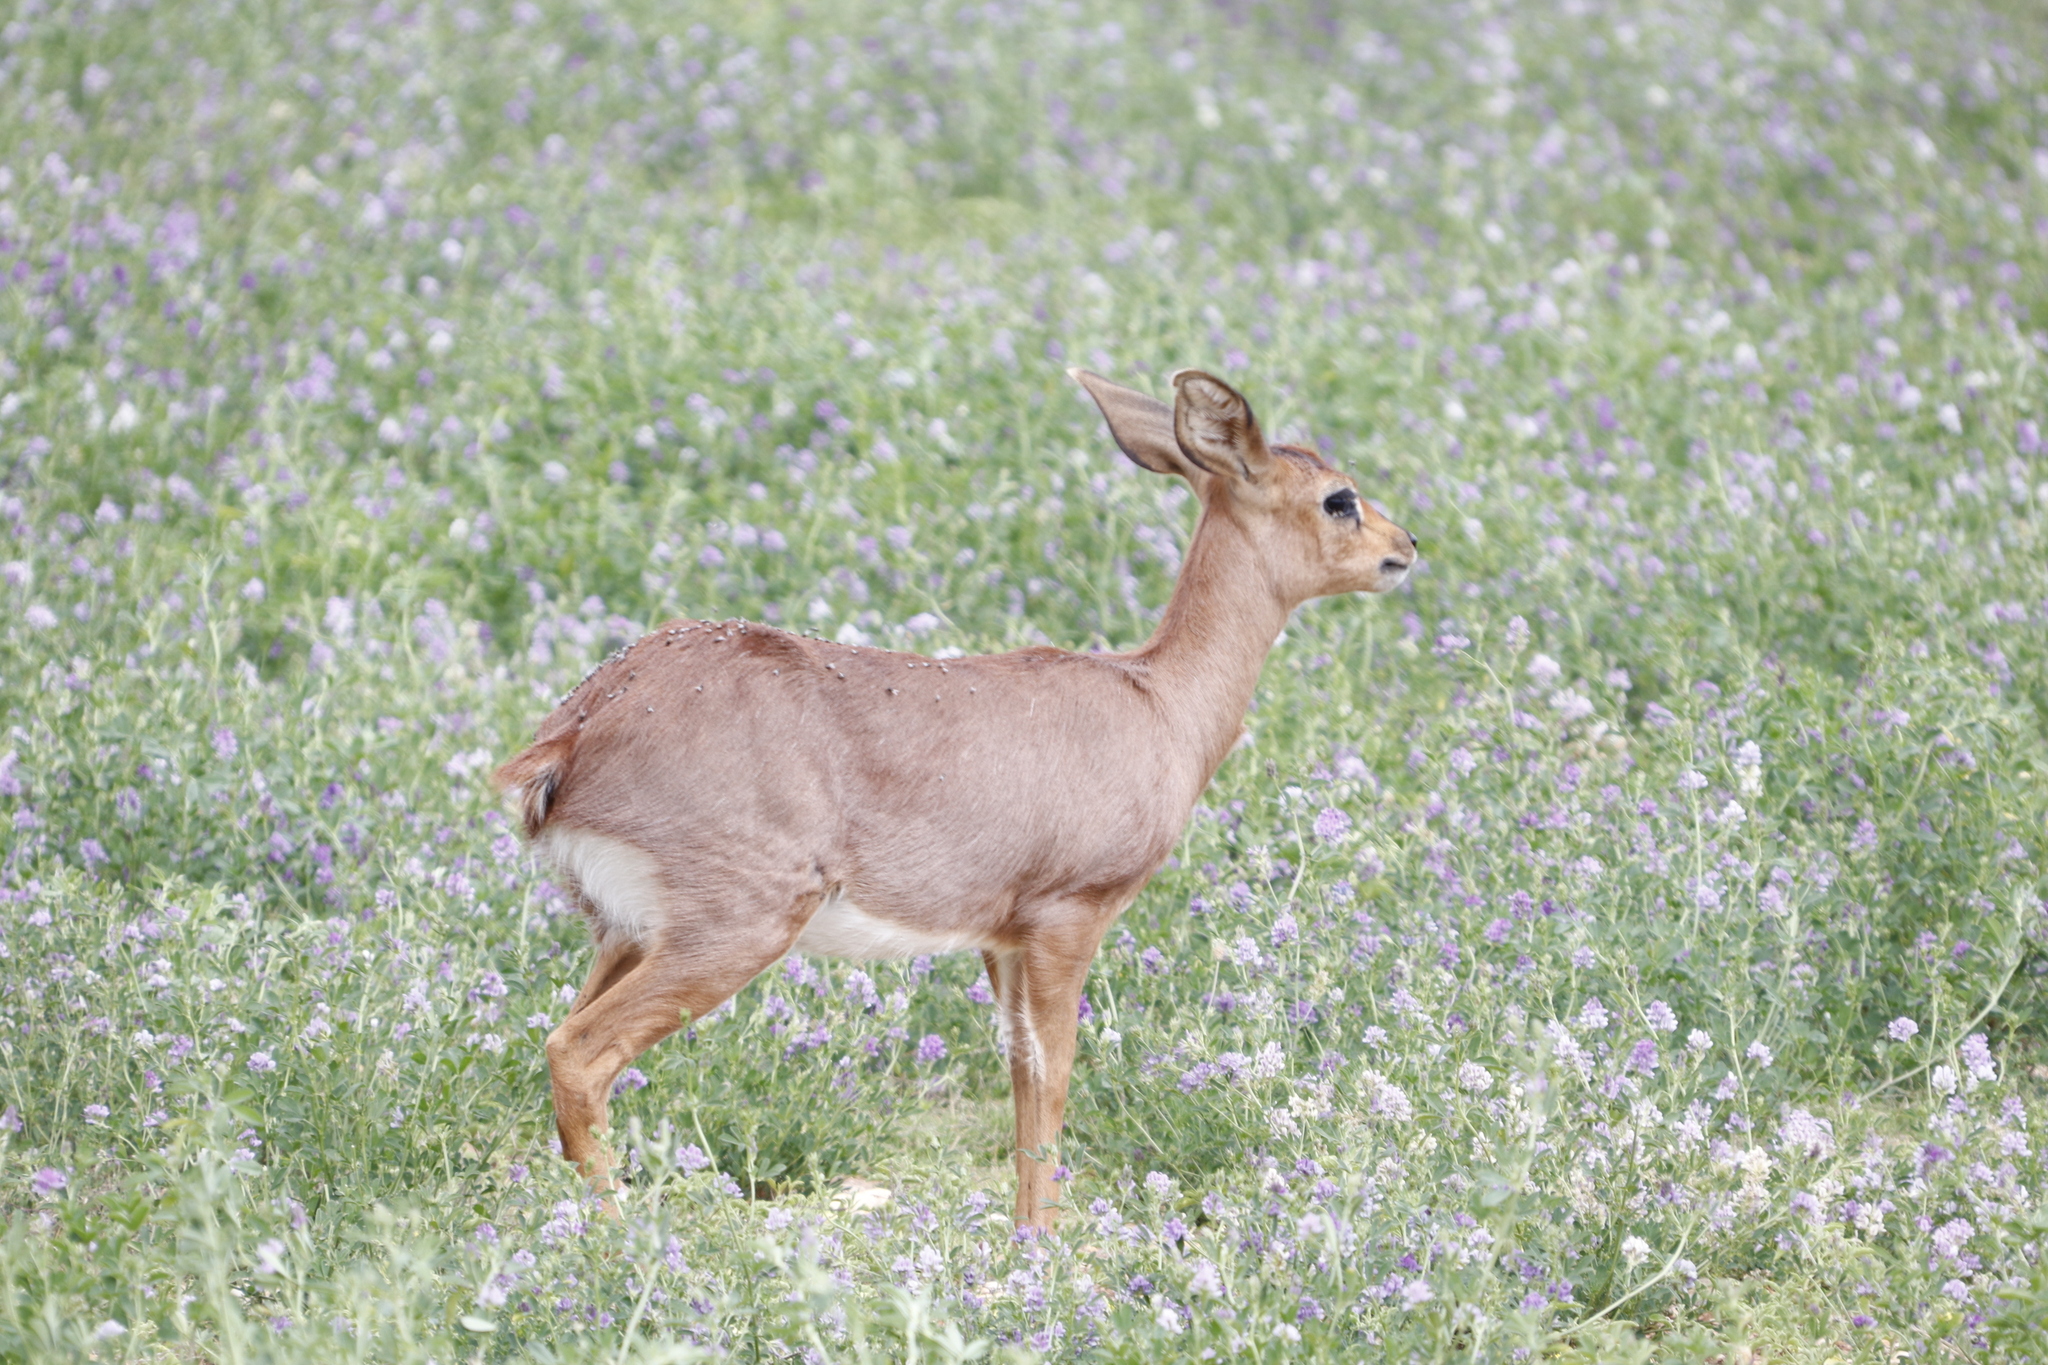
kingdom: Animalia
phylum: Chordata
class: Mammalia
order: Artiodactyla
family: Bovidae
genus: Raphicerus
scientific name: Raphicerus campestris
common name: Steenbok
